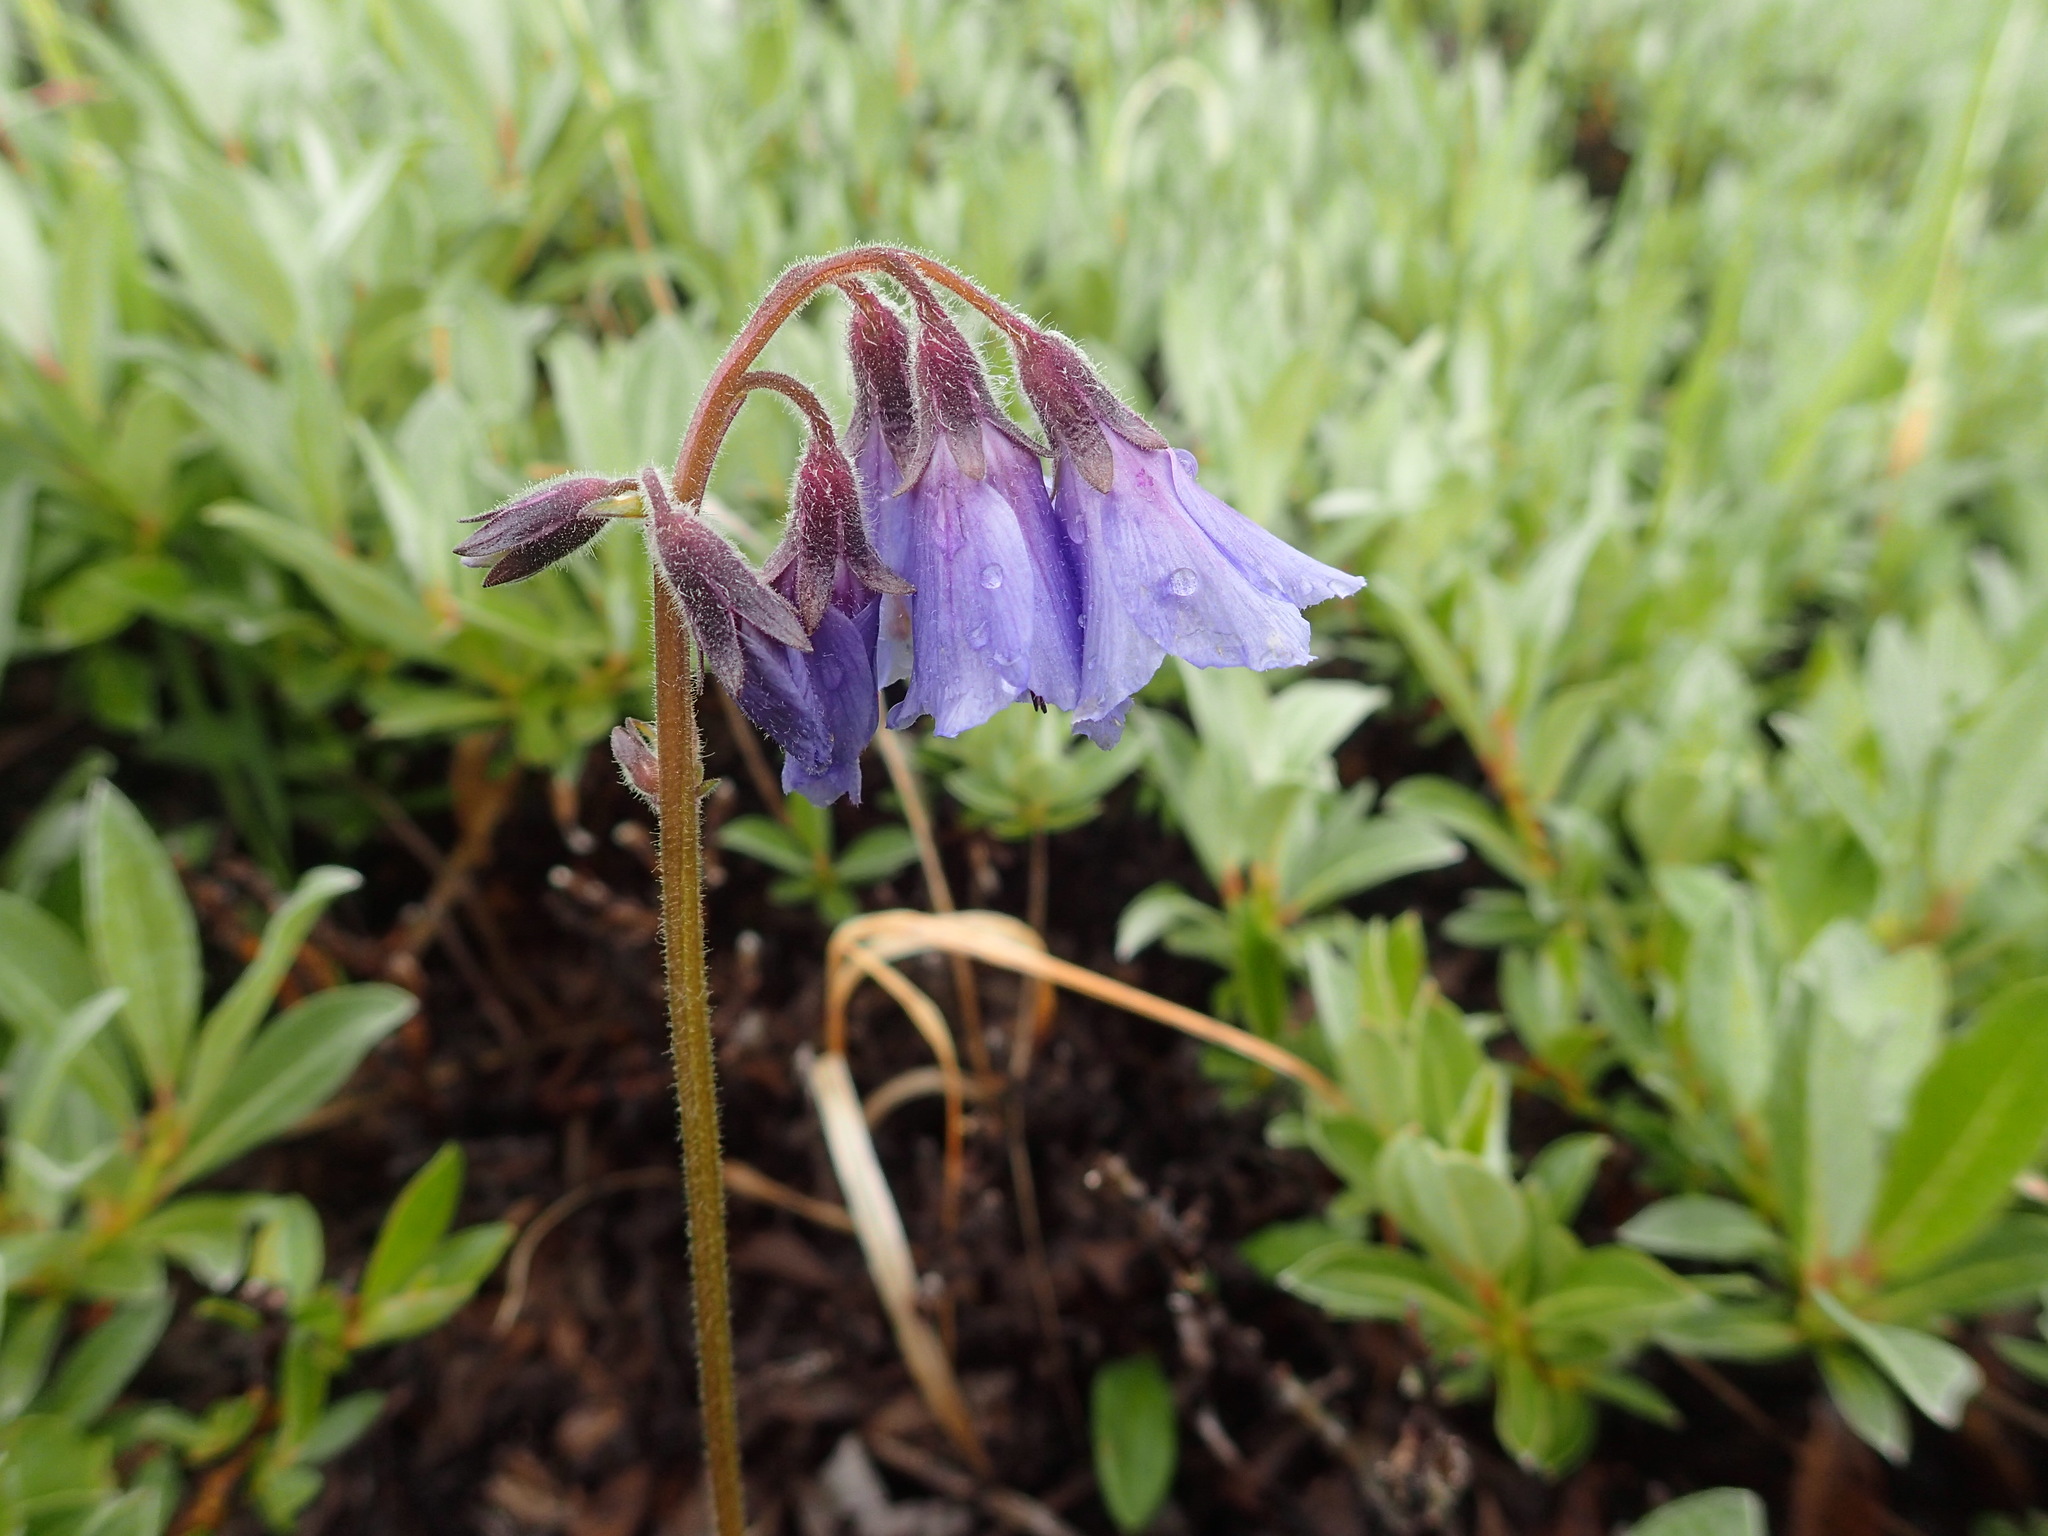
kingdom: Plantae
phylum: Tracheophyta
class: Magnoliopsida
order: Boraginales
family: Boraginaceae
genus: Mertensia
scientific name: Mertensia paniculata
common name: Panicled bluebells
